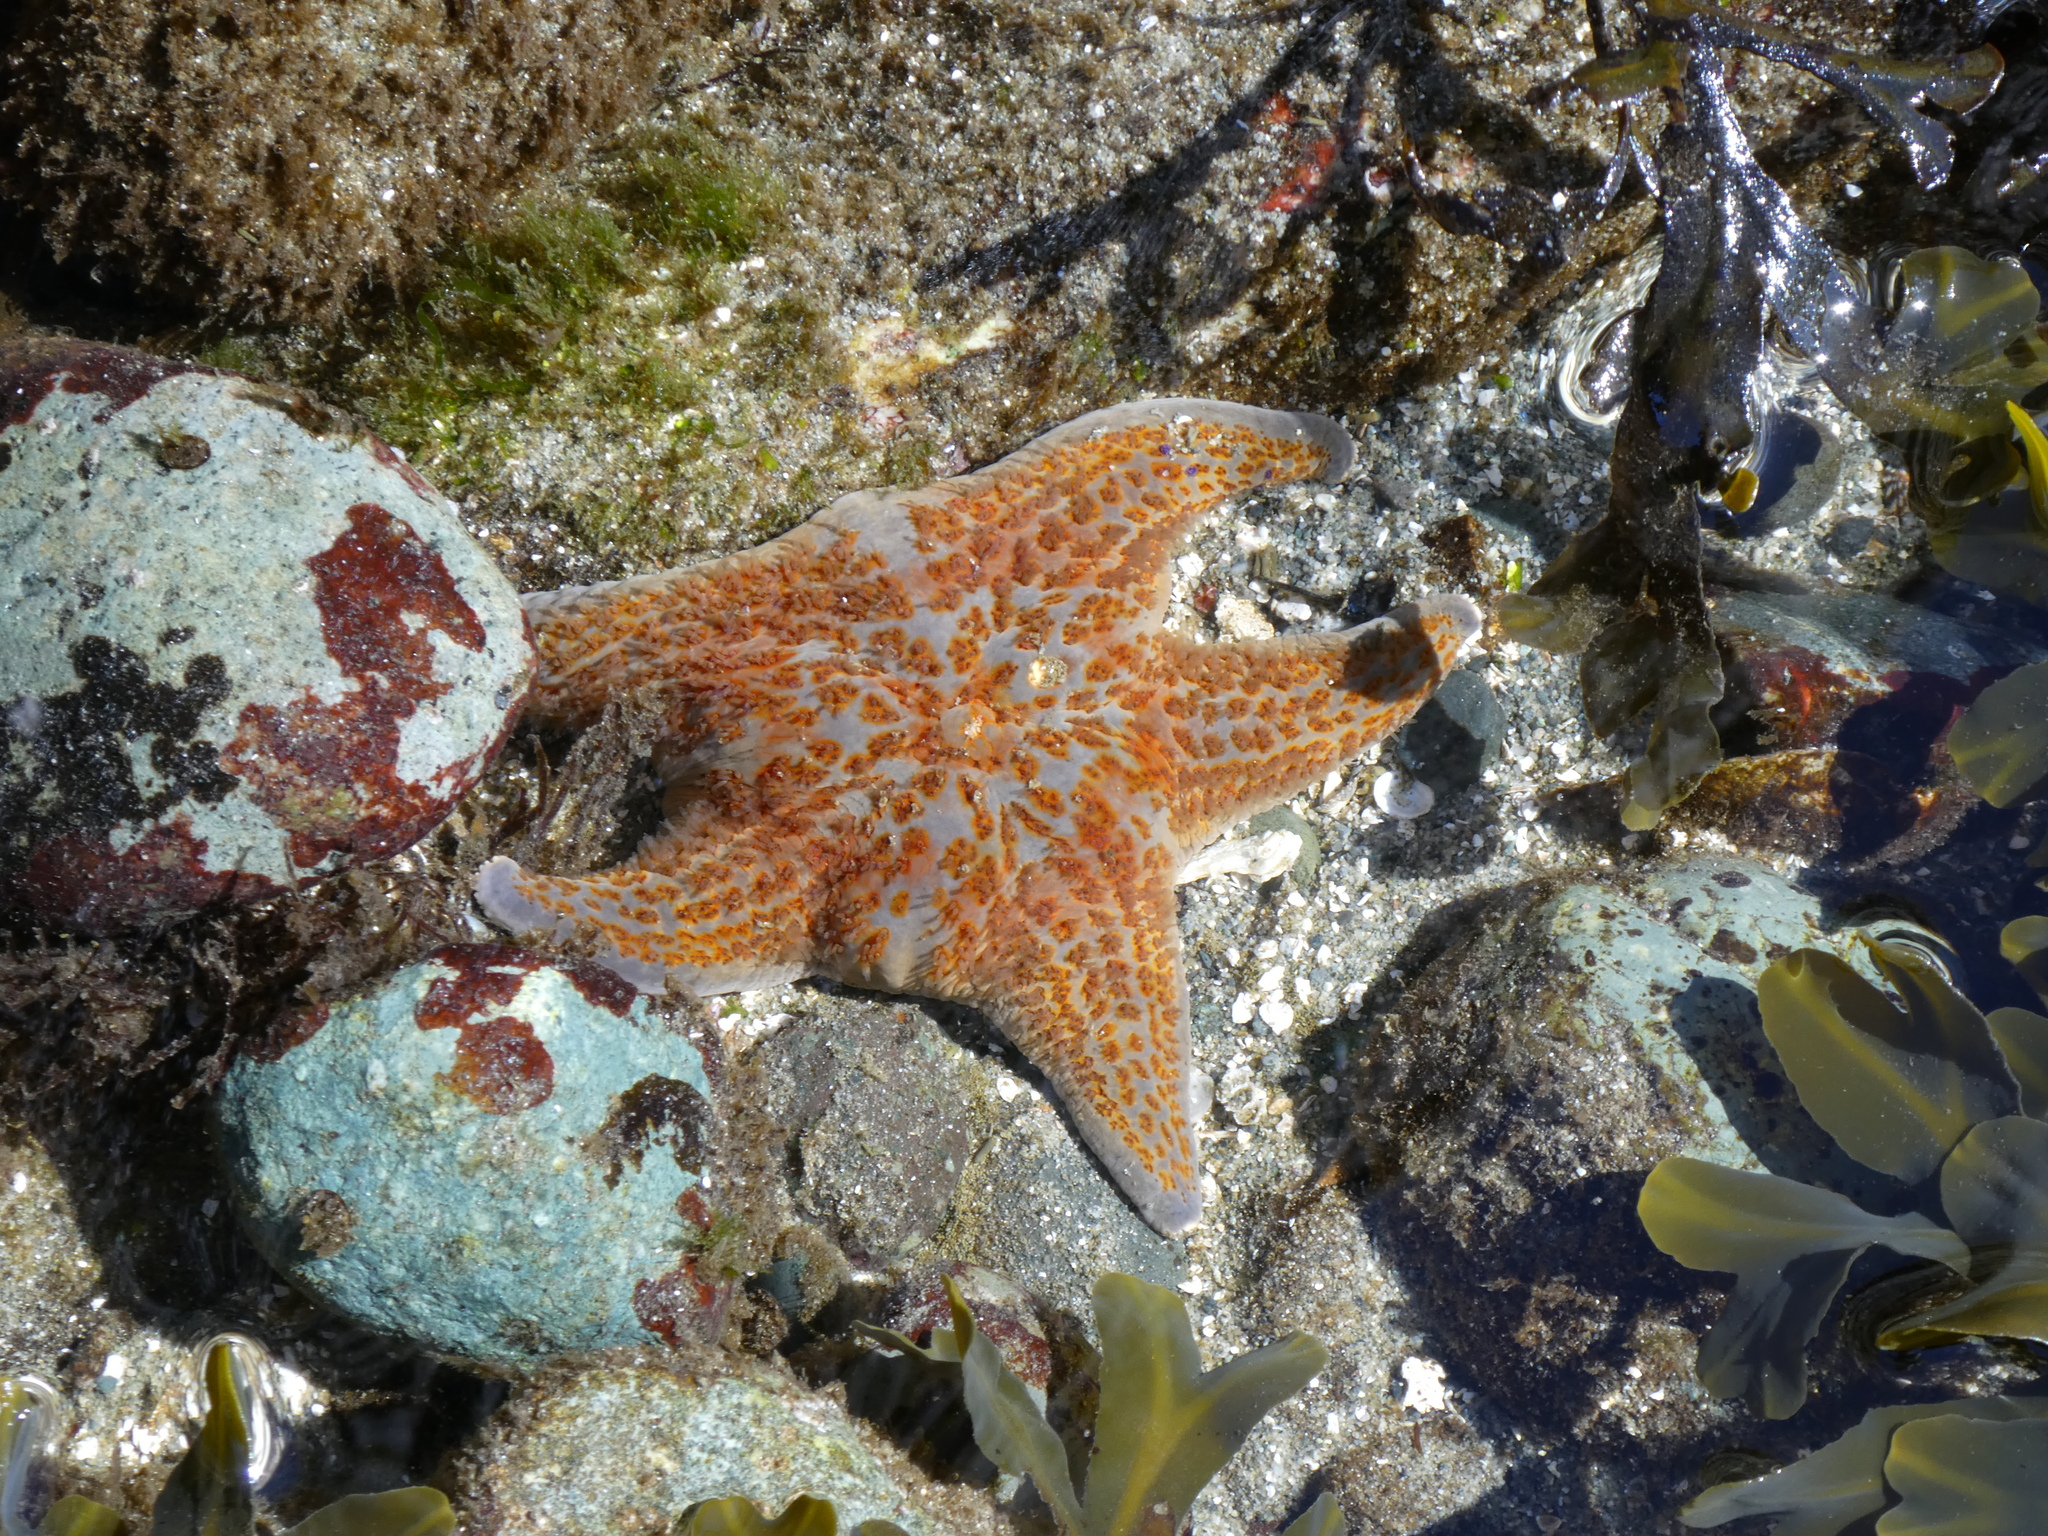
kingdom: Animalia
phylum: Echinodermata
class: Asteroidea
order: Valvatida
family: Asteropseidae
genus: Dermasterias
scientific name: Dermasterias imbricata
